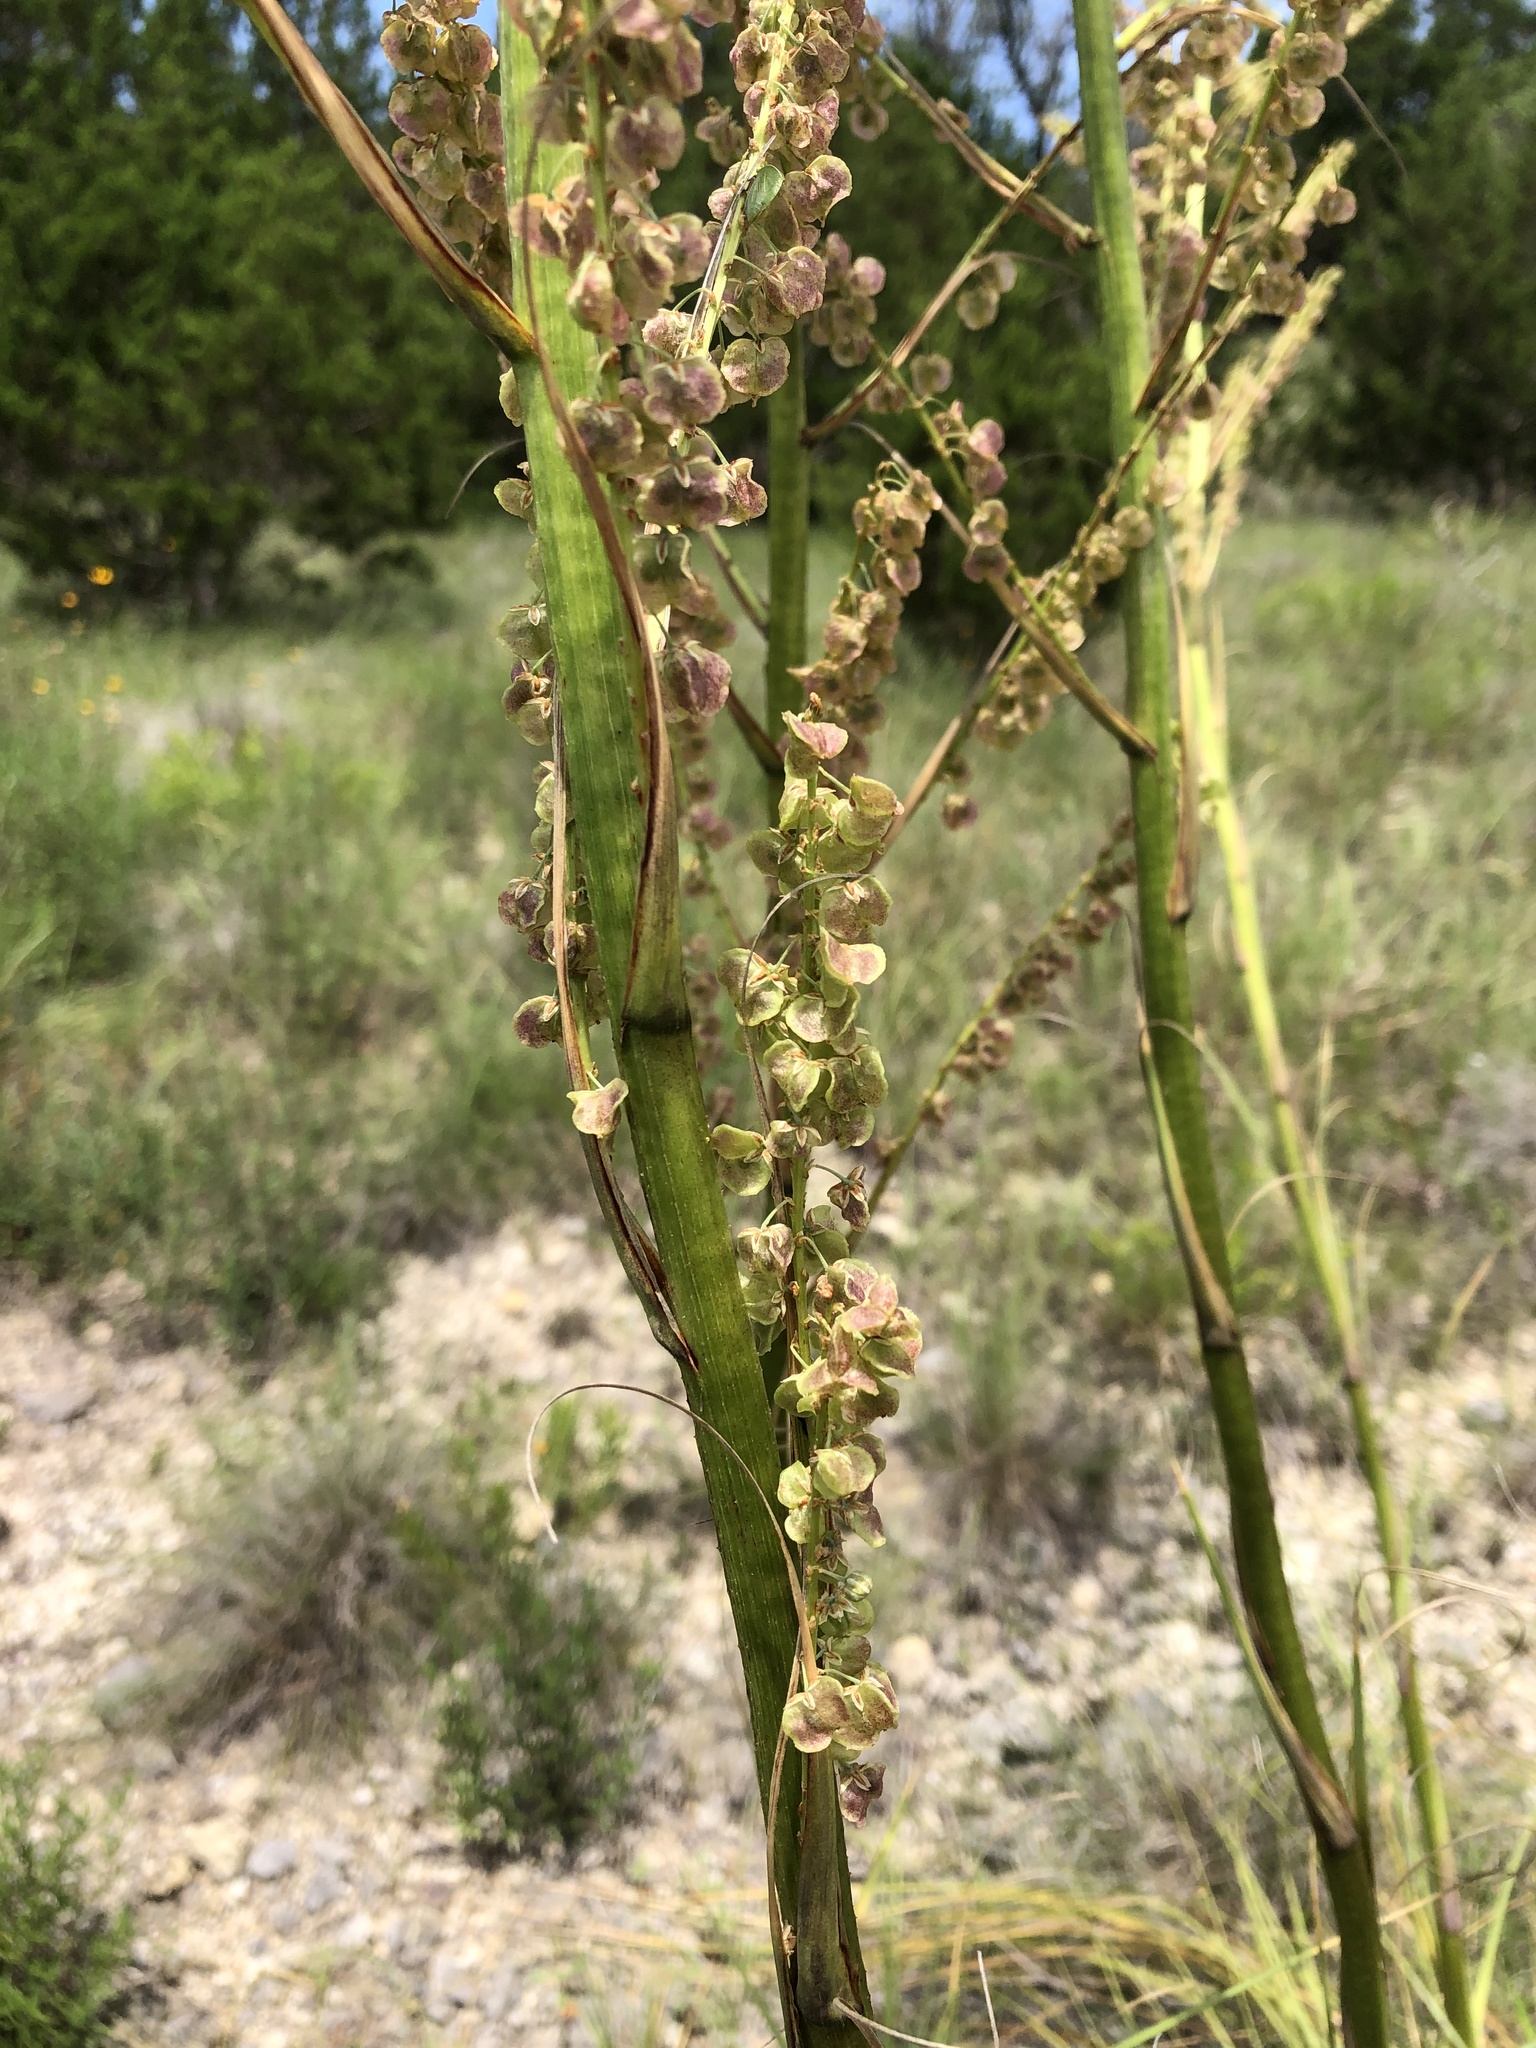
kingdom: Plantae
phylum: Tracheophyta
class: Liliopsida
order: Asparagales
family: Asparagaceae
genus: Nolina
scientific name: Nolina lindheimeriana
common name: Lindheimer's bear-grass
